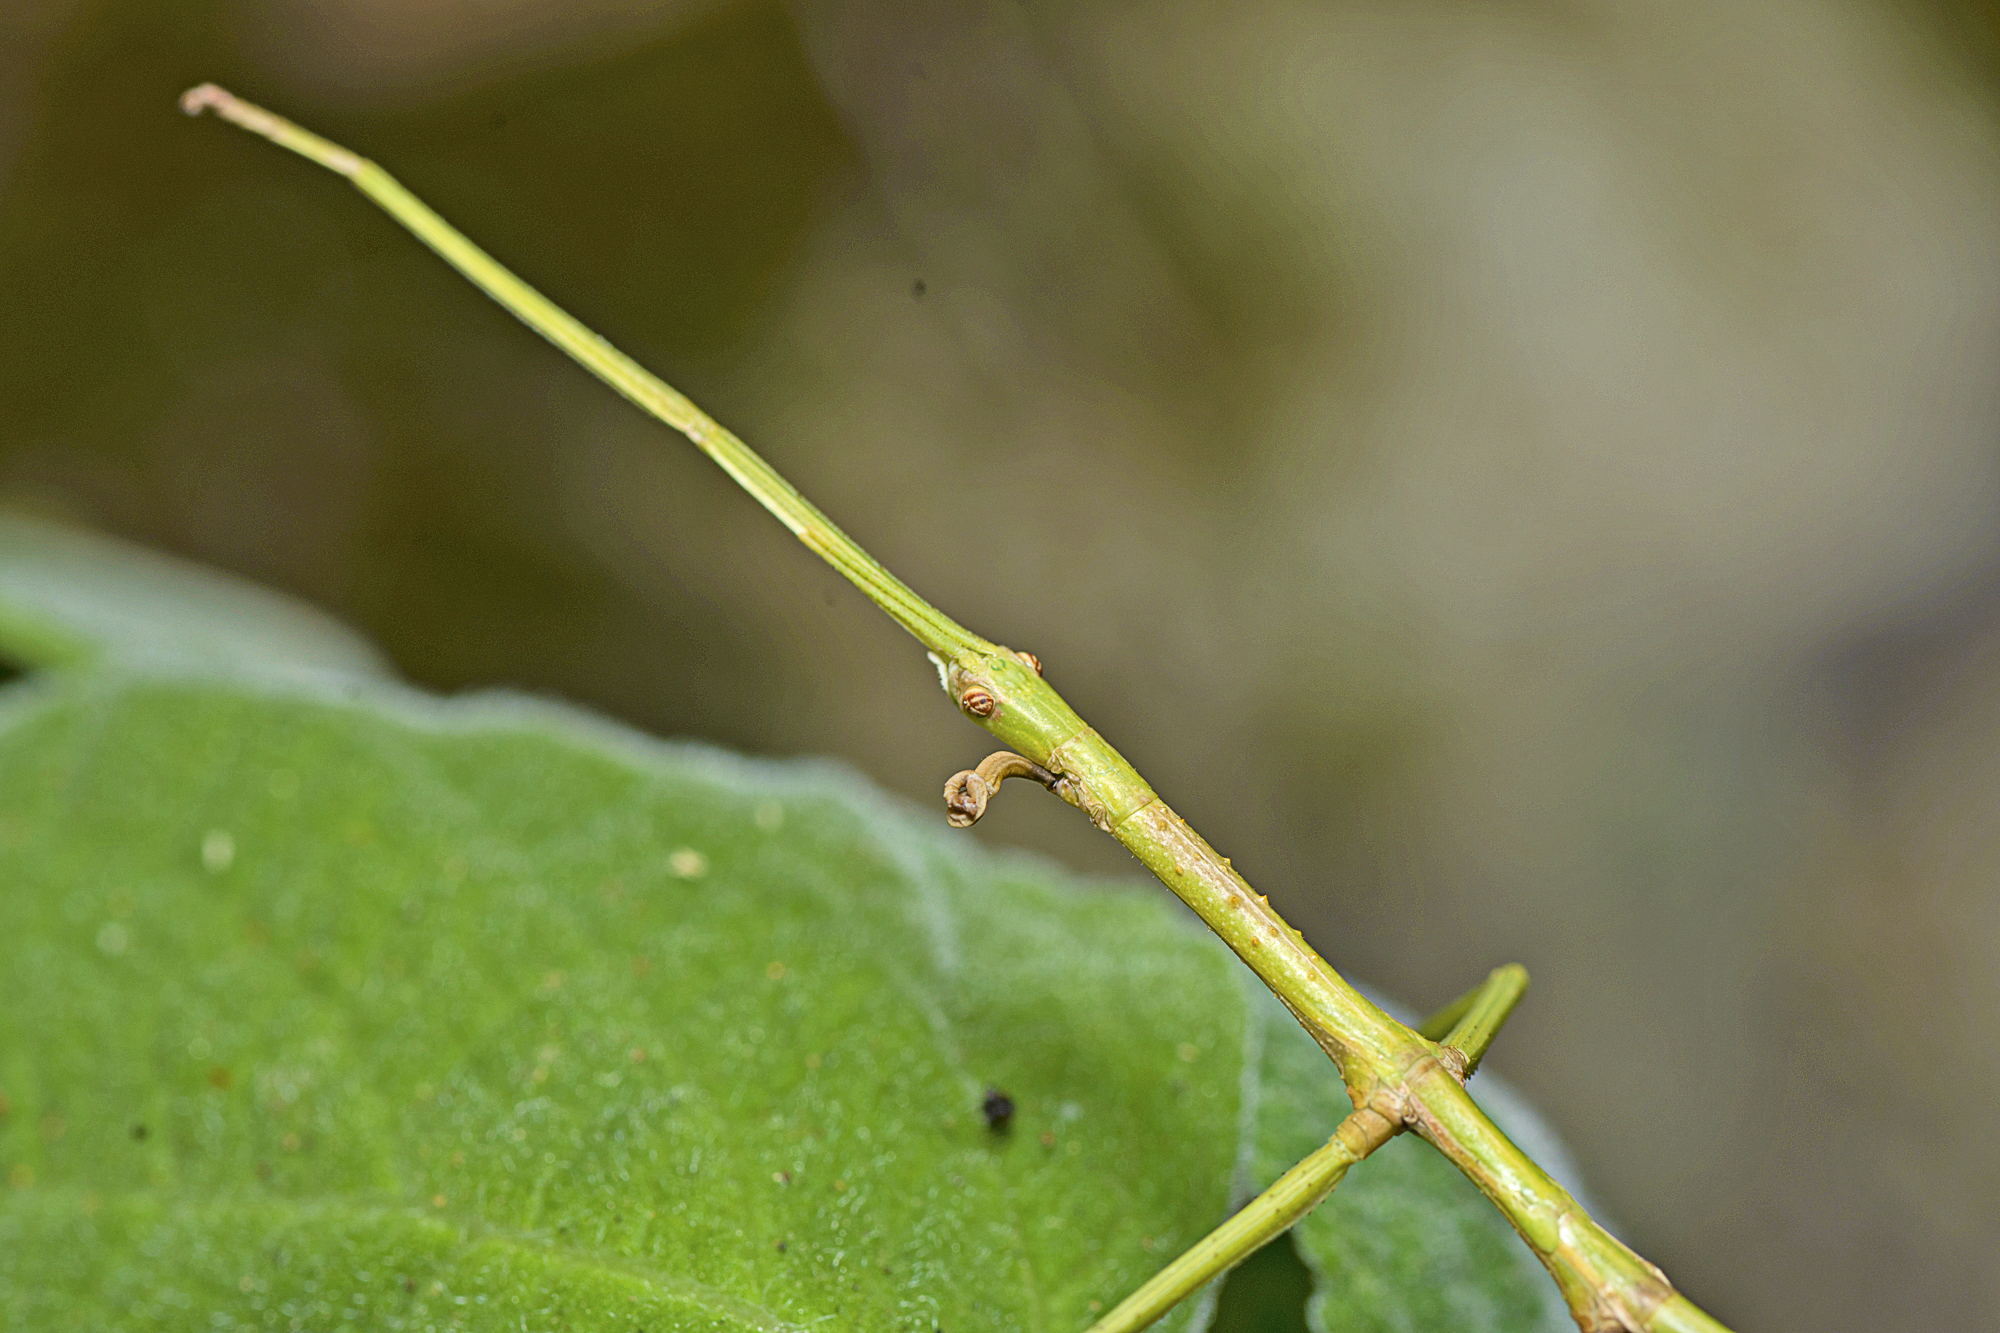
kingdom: Animalia
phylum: Arthropoda
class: Insecta
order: Phasmida
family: Phasmatidae
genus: Acrophylla
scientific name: Acrophylla titan
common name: Titan stick insect
